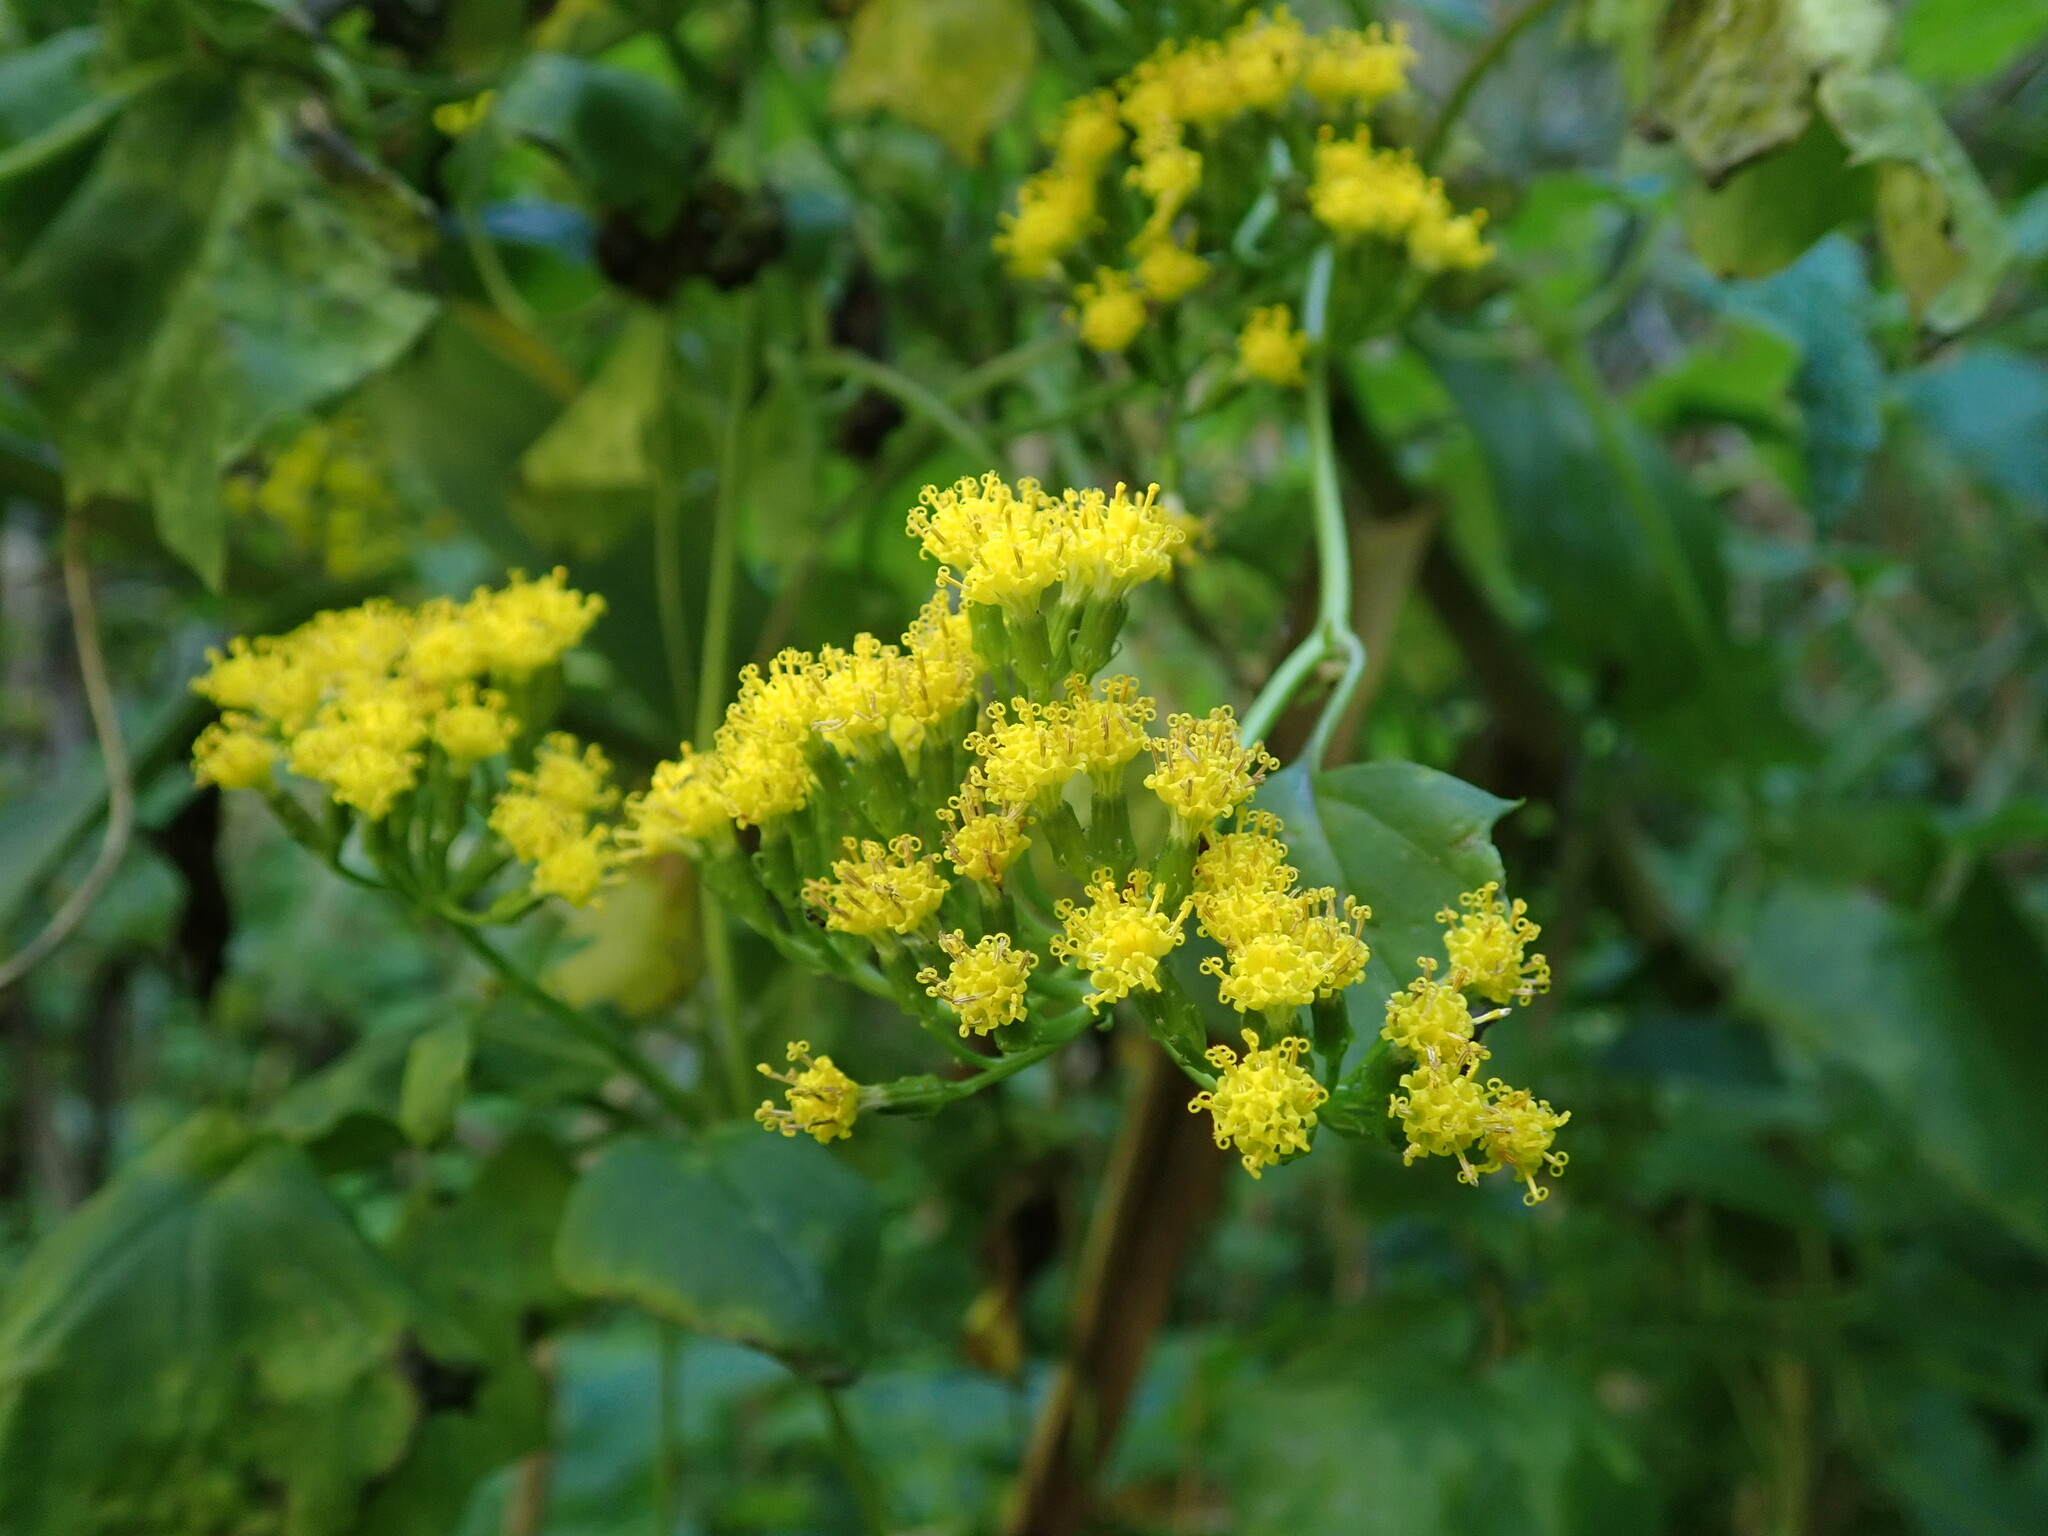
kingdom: Plantae
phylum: Tracheophyta
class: Magnoliopsida
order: Asterales
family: Asteraceae
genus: Delairea
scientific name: Delairea odorata
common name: Cape-ivy
